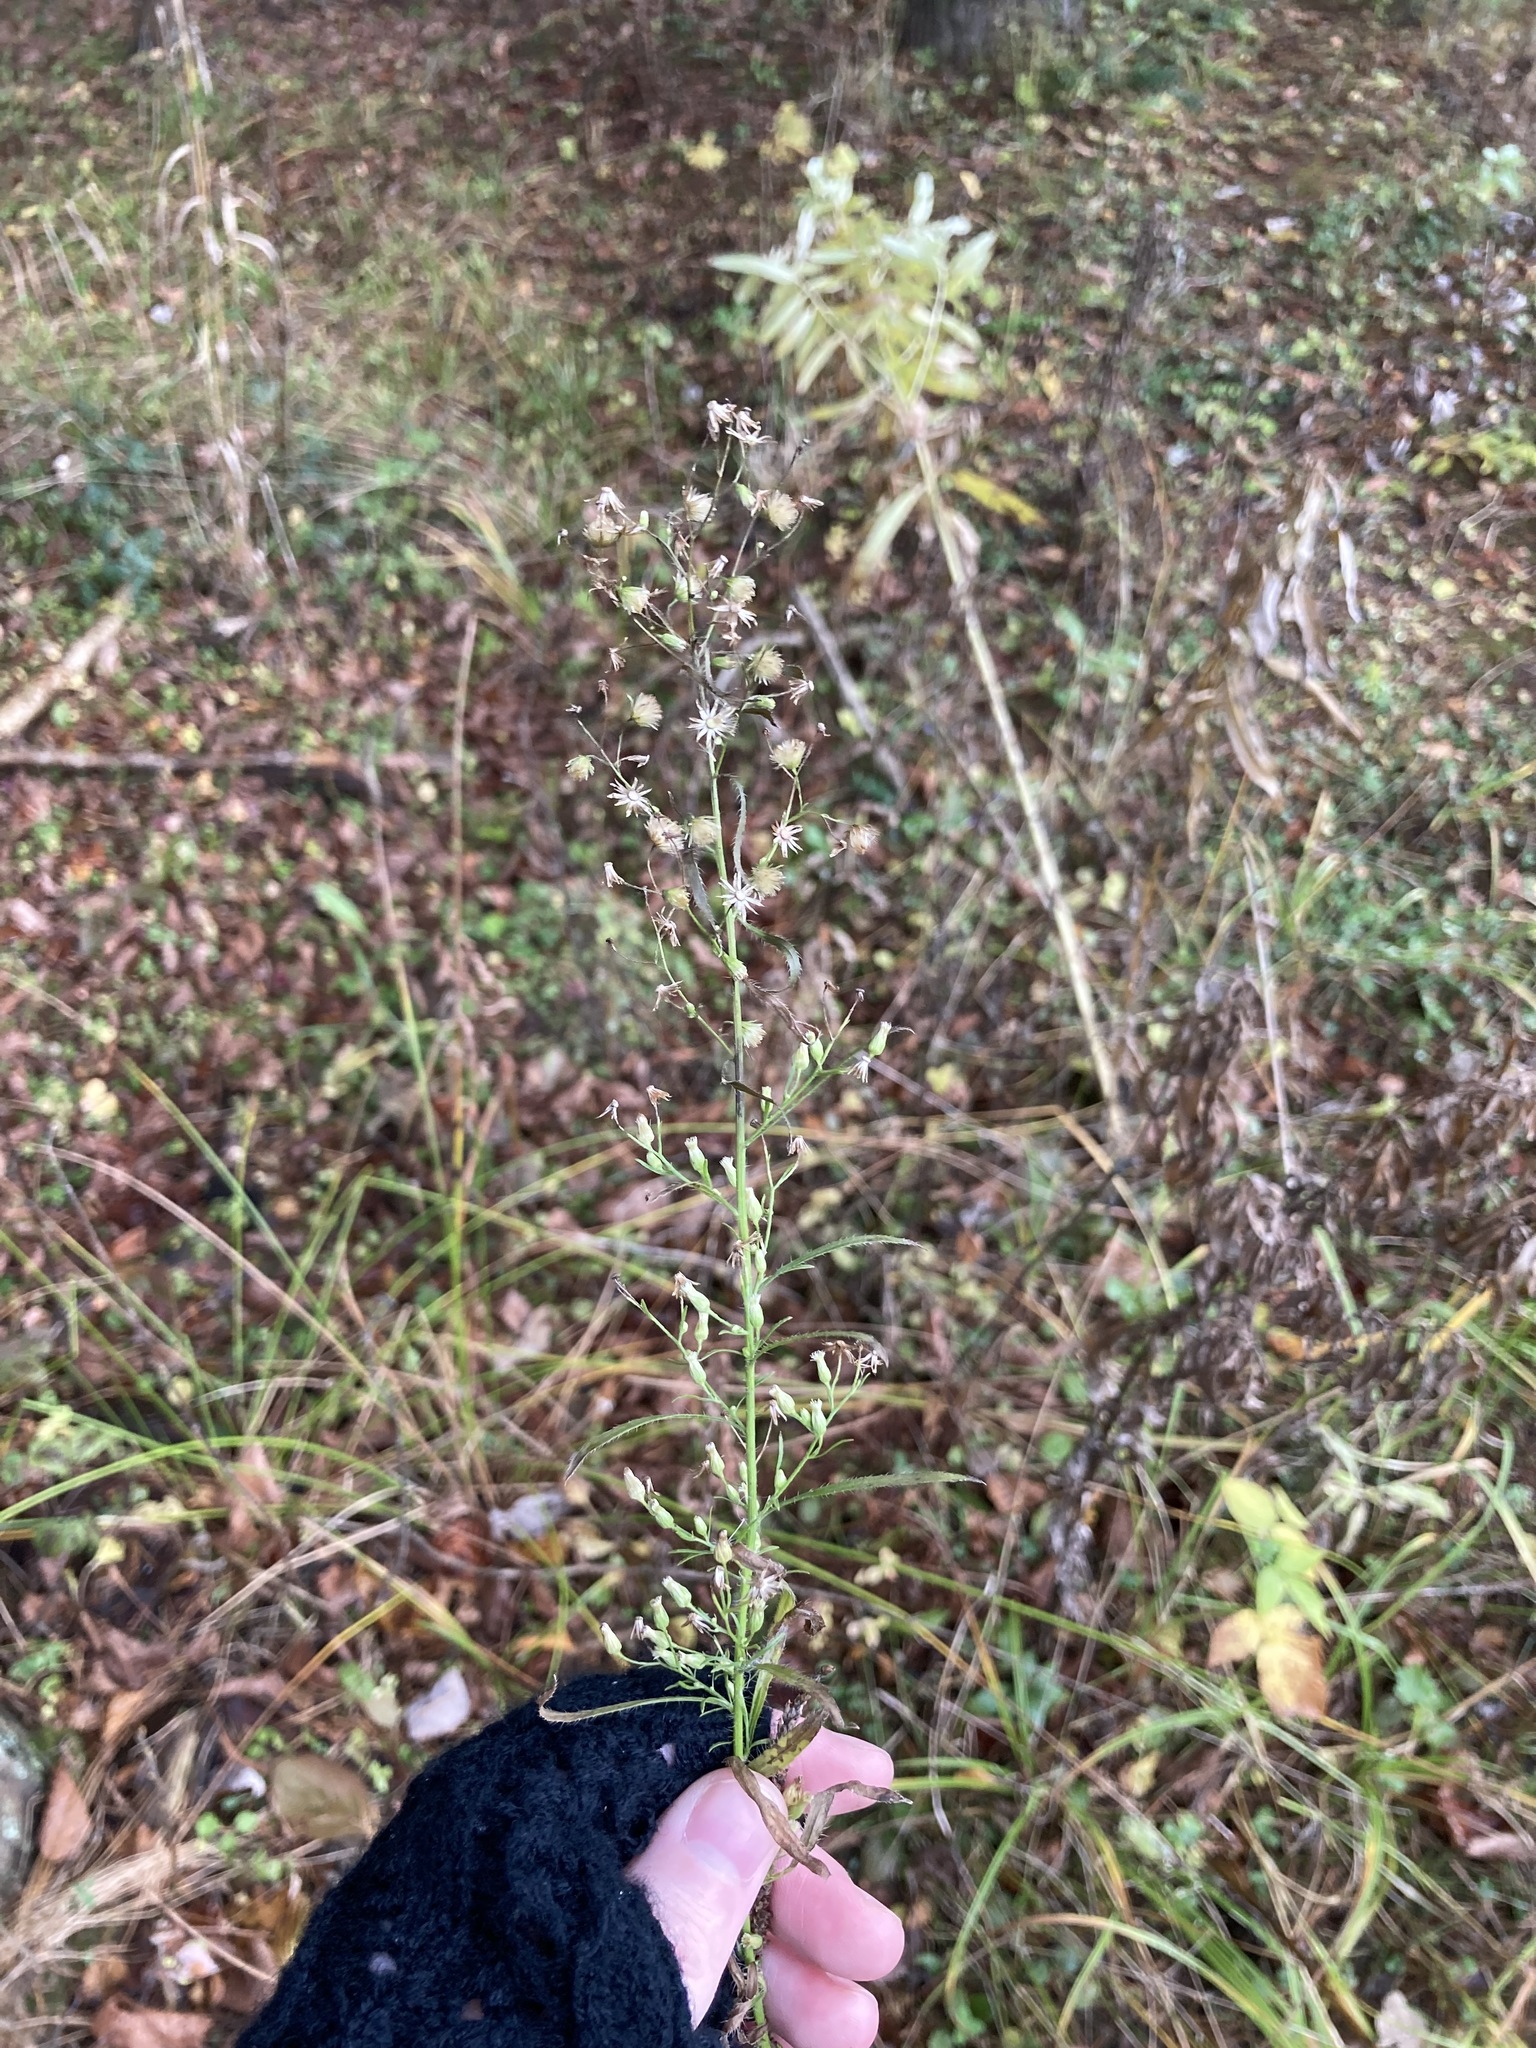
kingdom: Plantae
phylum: Tracheophyta
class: Magnoliopsida
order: Asterales
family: Asteraceae
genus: Erigeron
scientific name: Erigeron canadensis
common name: Canadian fleabane
